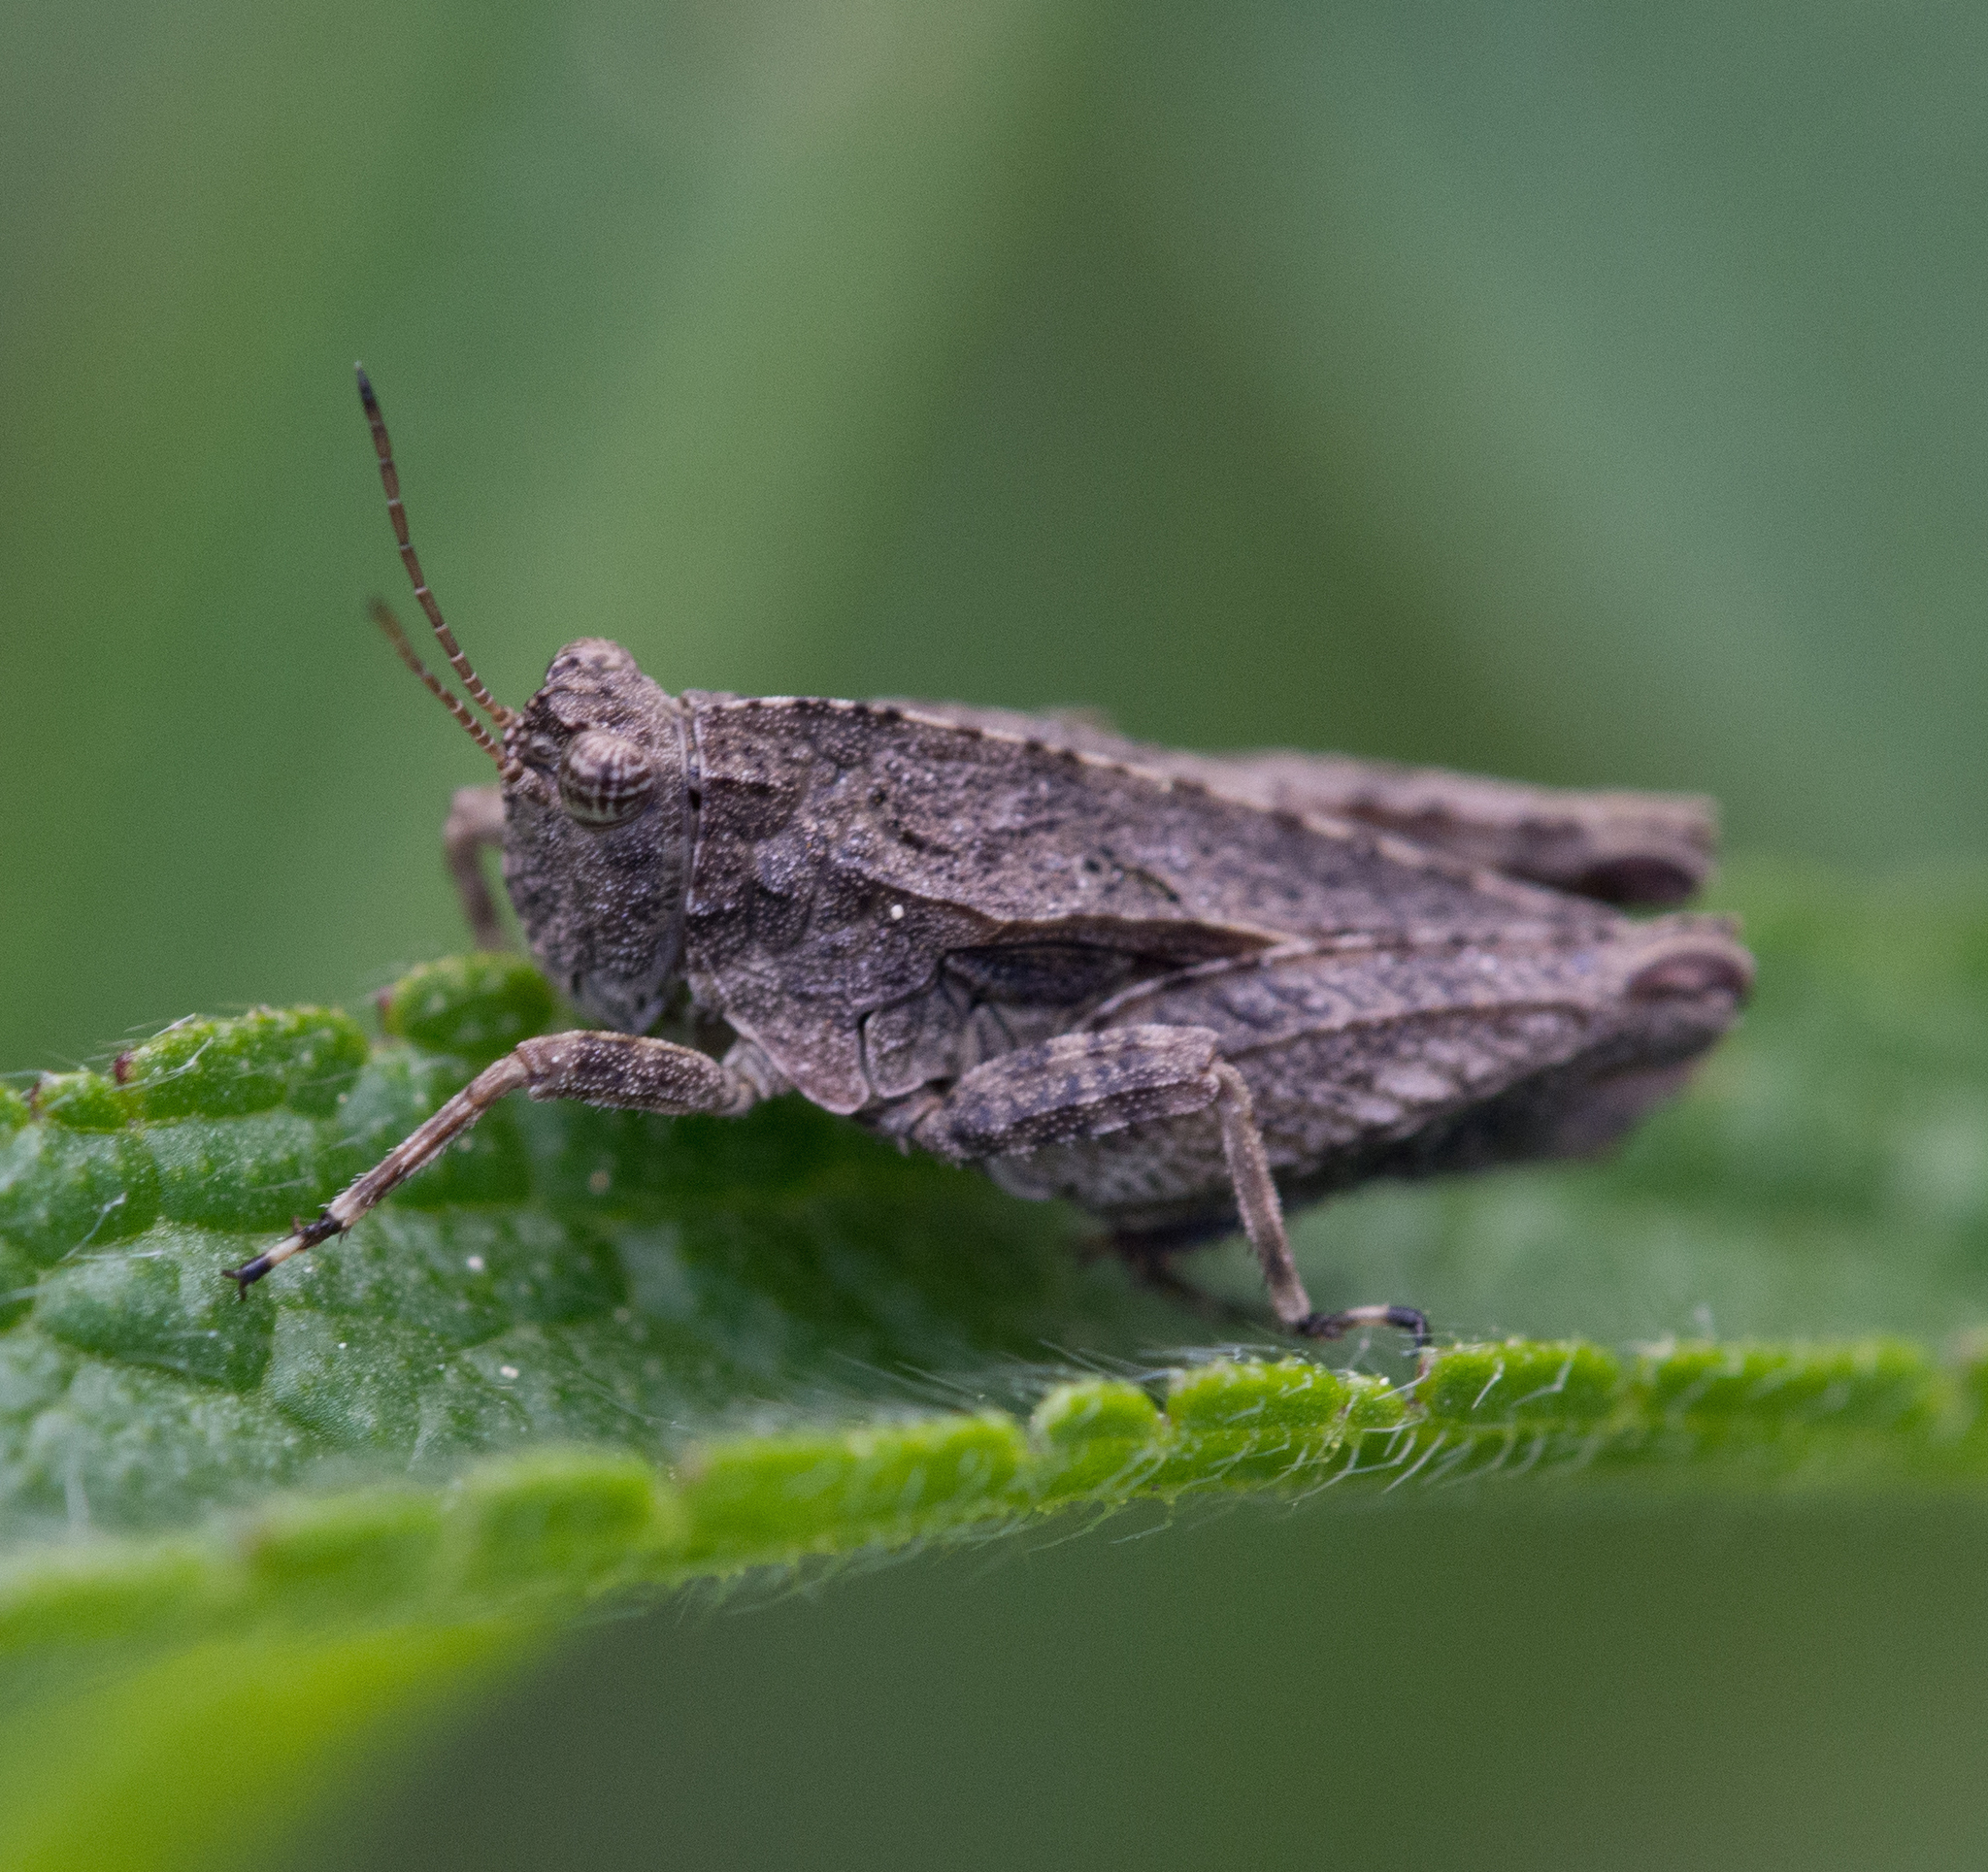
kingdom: Animalia
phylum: Arthropoda
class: Insecta
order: Orthoptera
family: Tetrigidae
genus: Tetrix
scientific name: Tetrix tenuicornis
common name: Long-horned groundhopper
